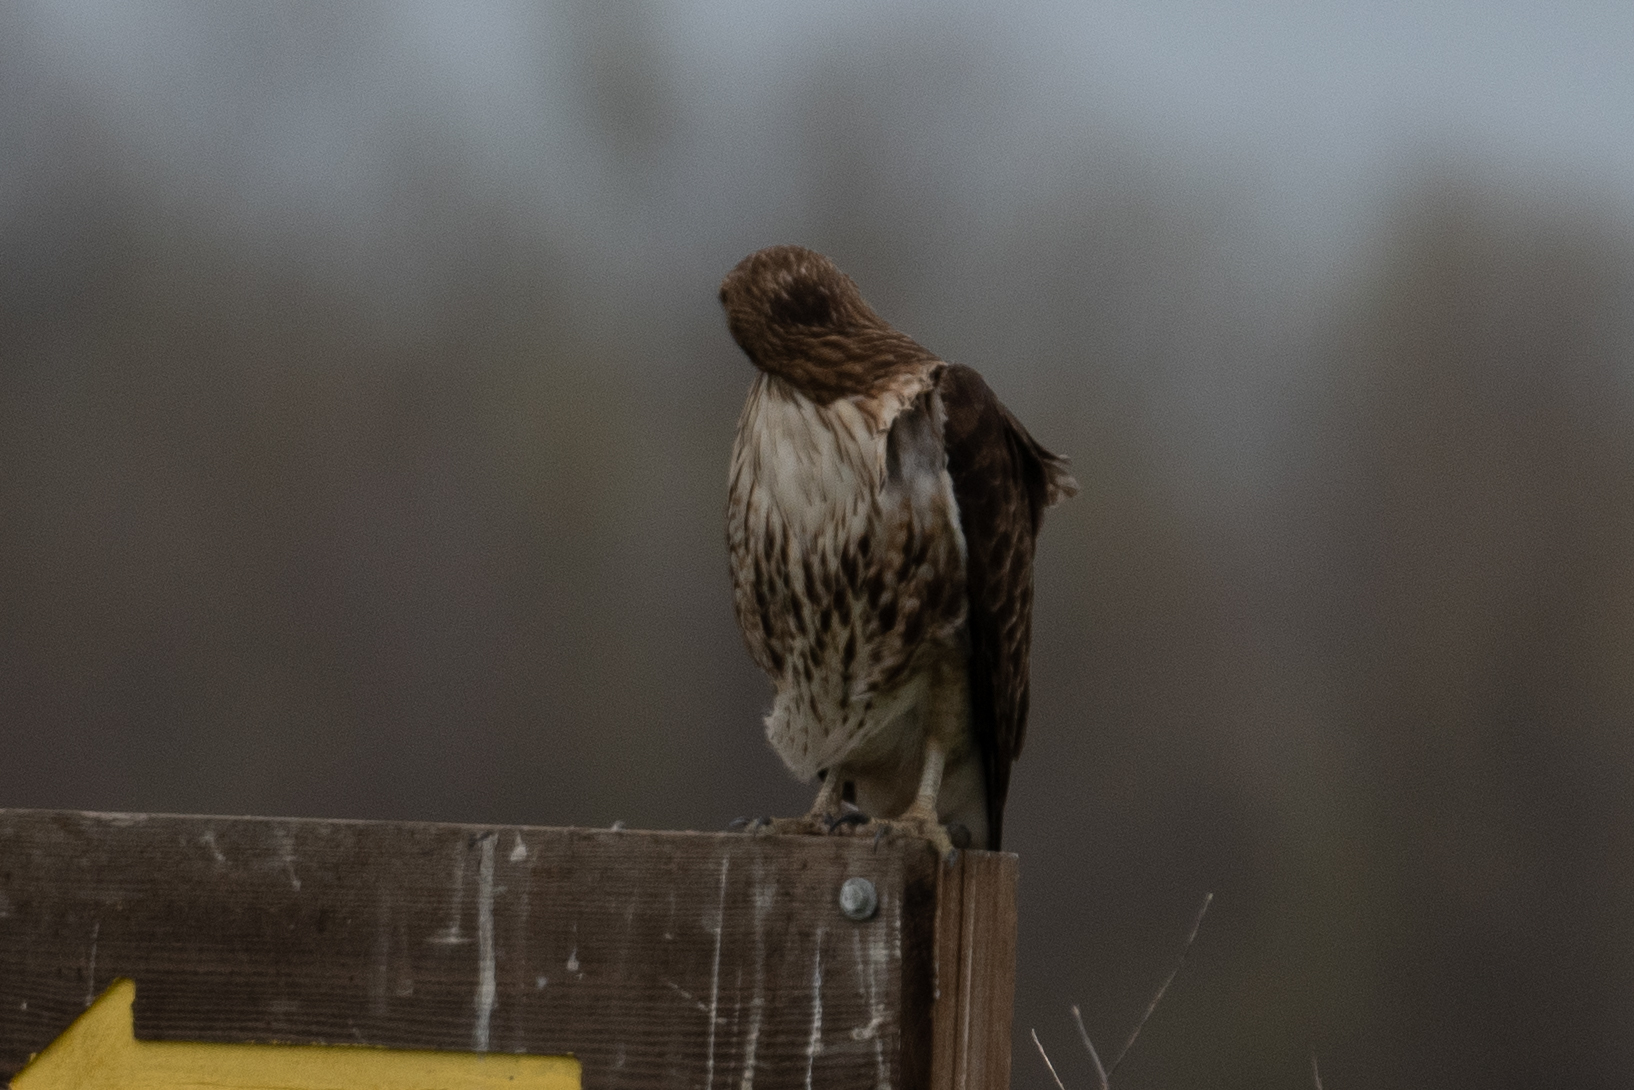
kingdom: Animalia
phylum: Chordata
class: Aves
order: Accipitriformes
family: Accipitridae
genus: Buteo
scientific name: Buteo jamaicensis
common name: Red-tailed hawk
